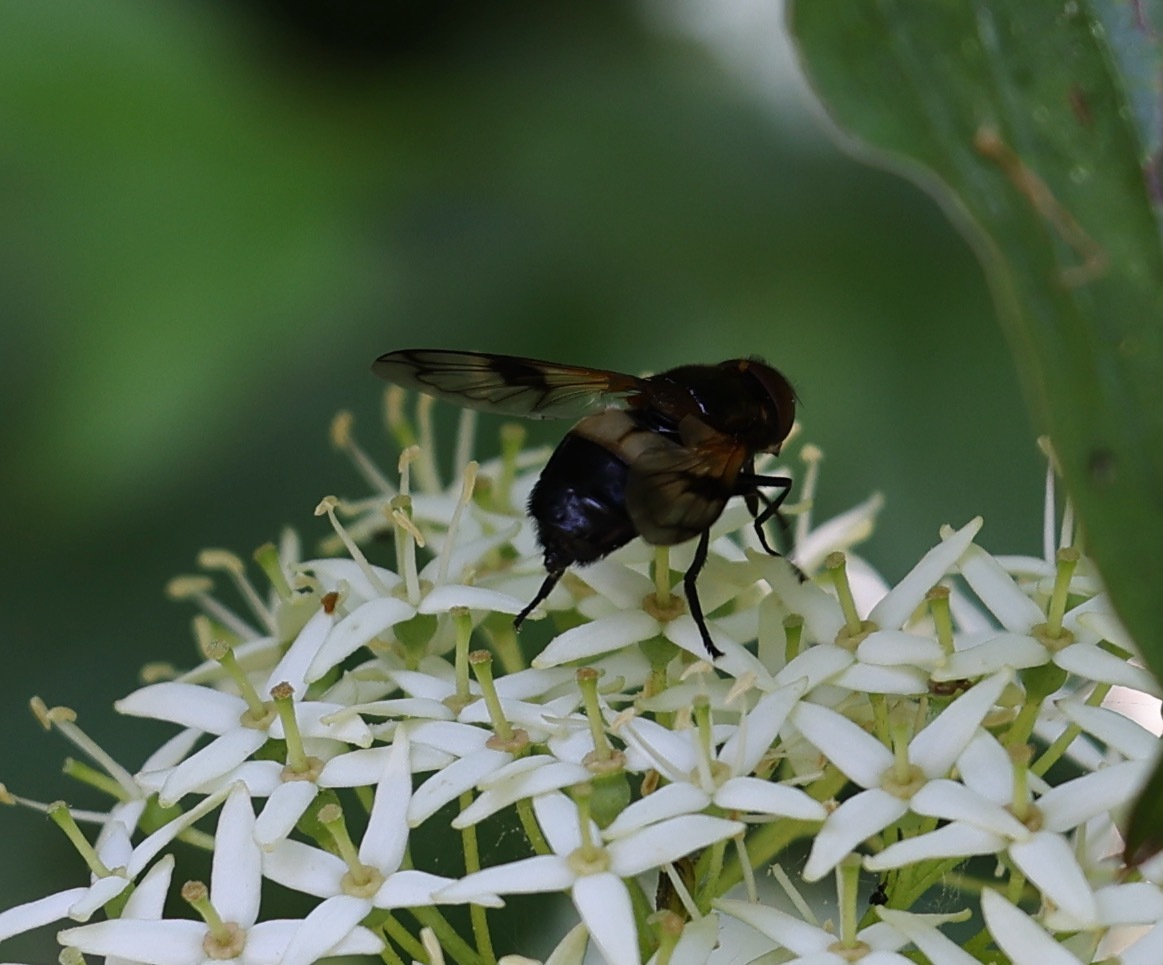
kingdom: Animalia
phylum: Arthropoda
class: Insecta
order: Diptera
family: Syrphidae
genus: Volucella
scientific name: Volucella pellucens
